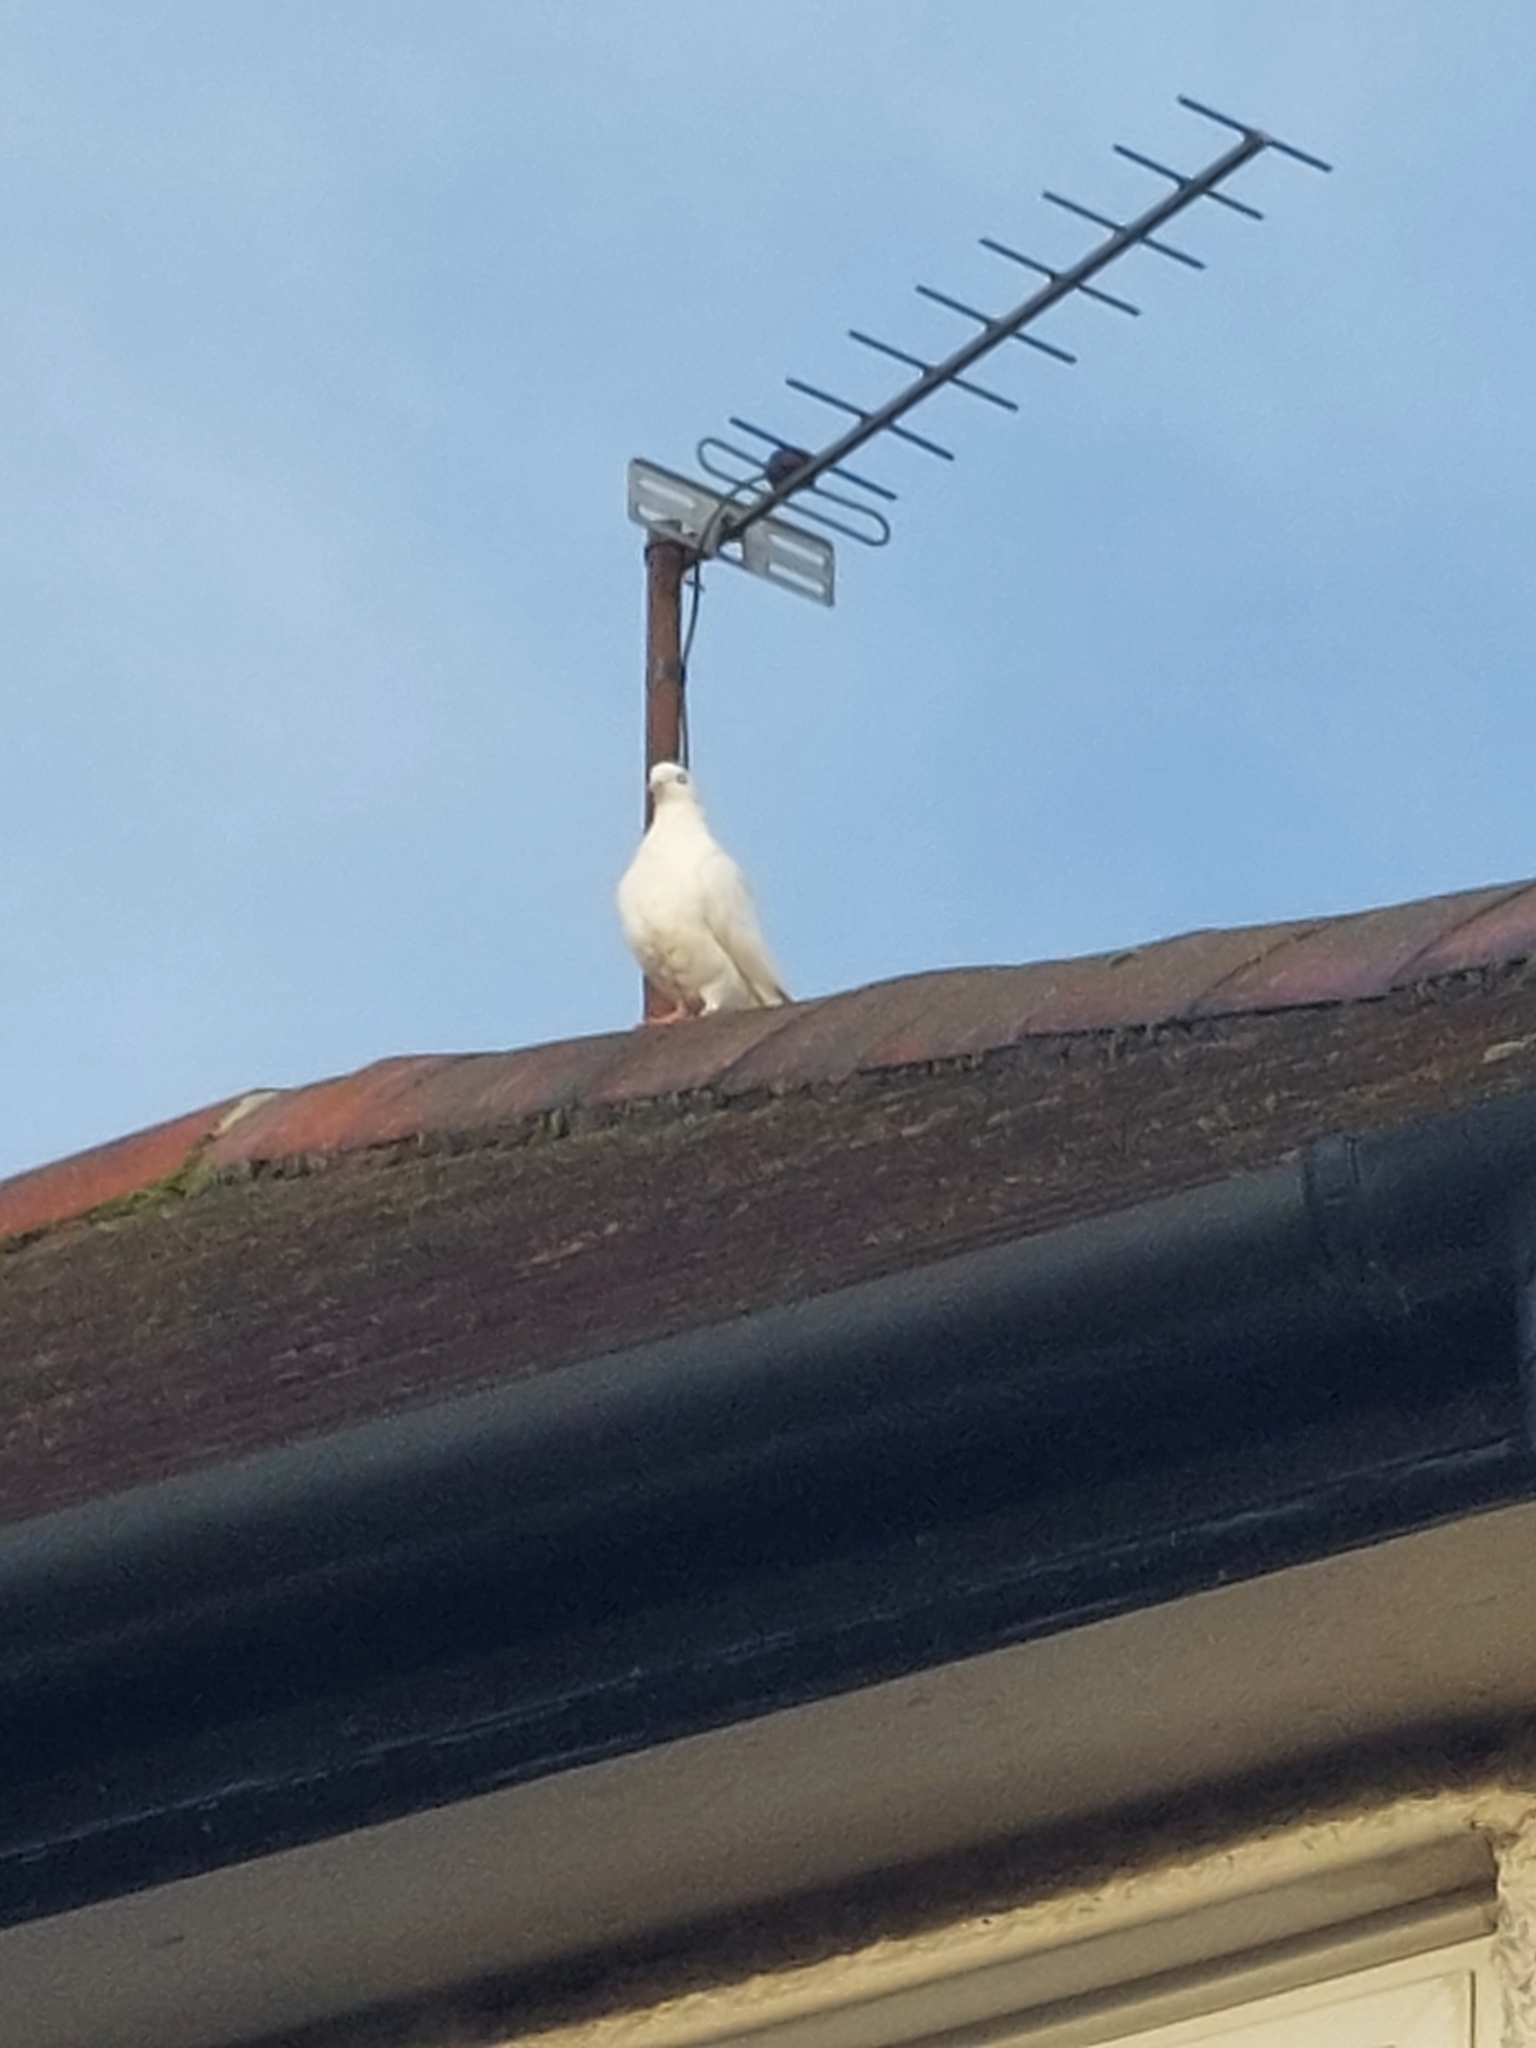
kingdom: Animalia
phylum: Chordata
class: Aves
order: Columbiformes
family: Columbidae
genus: Columba
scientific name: Columba livia
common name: Rock pigeon
